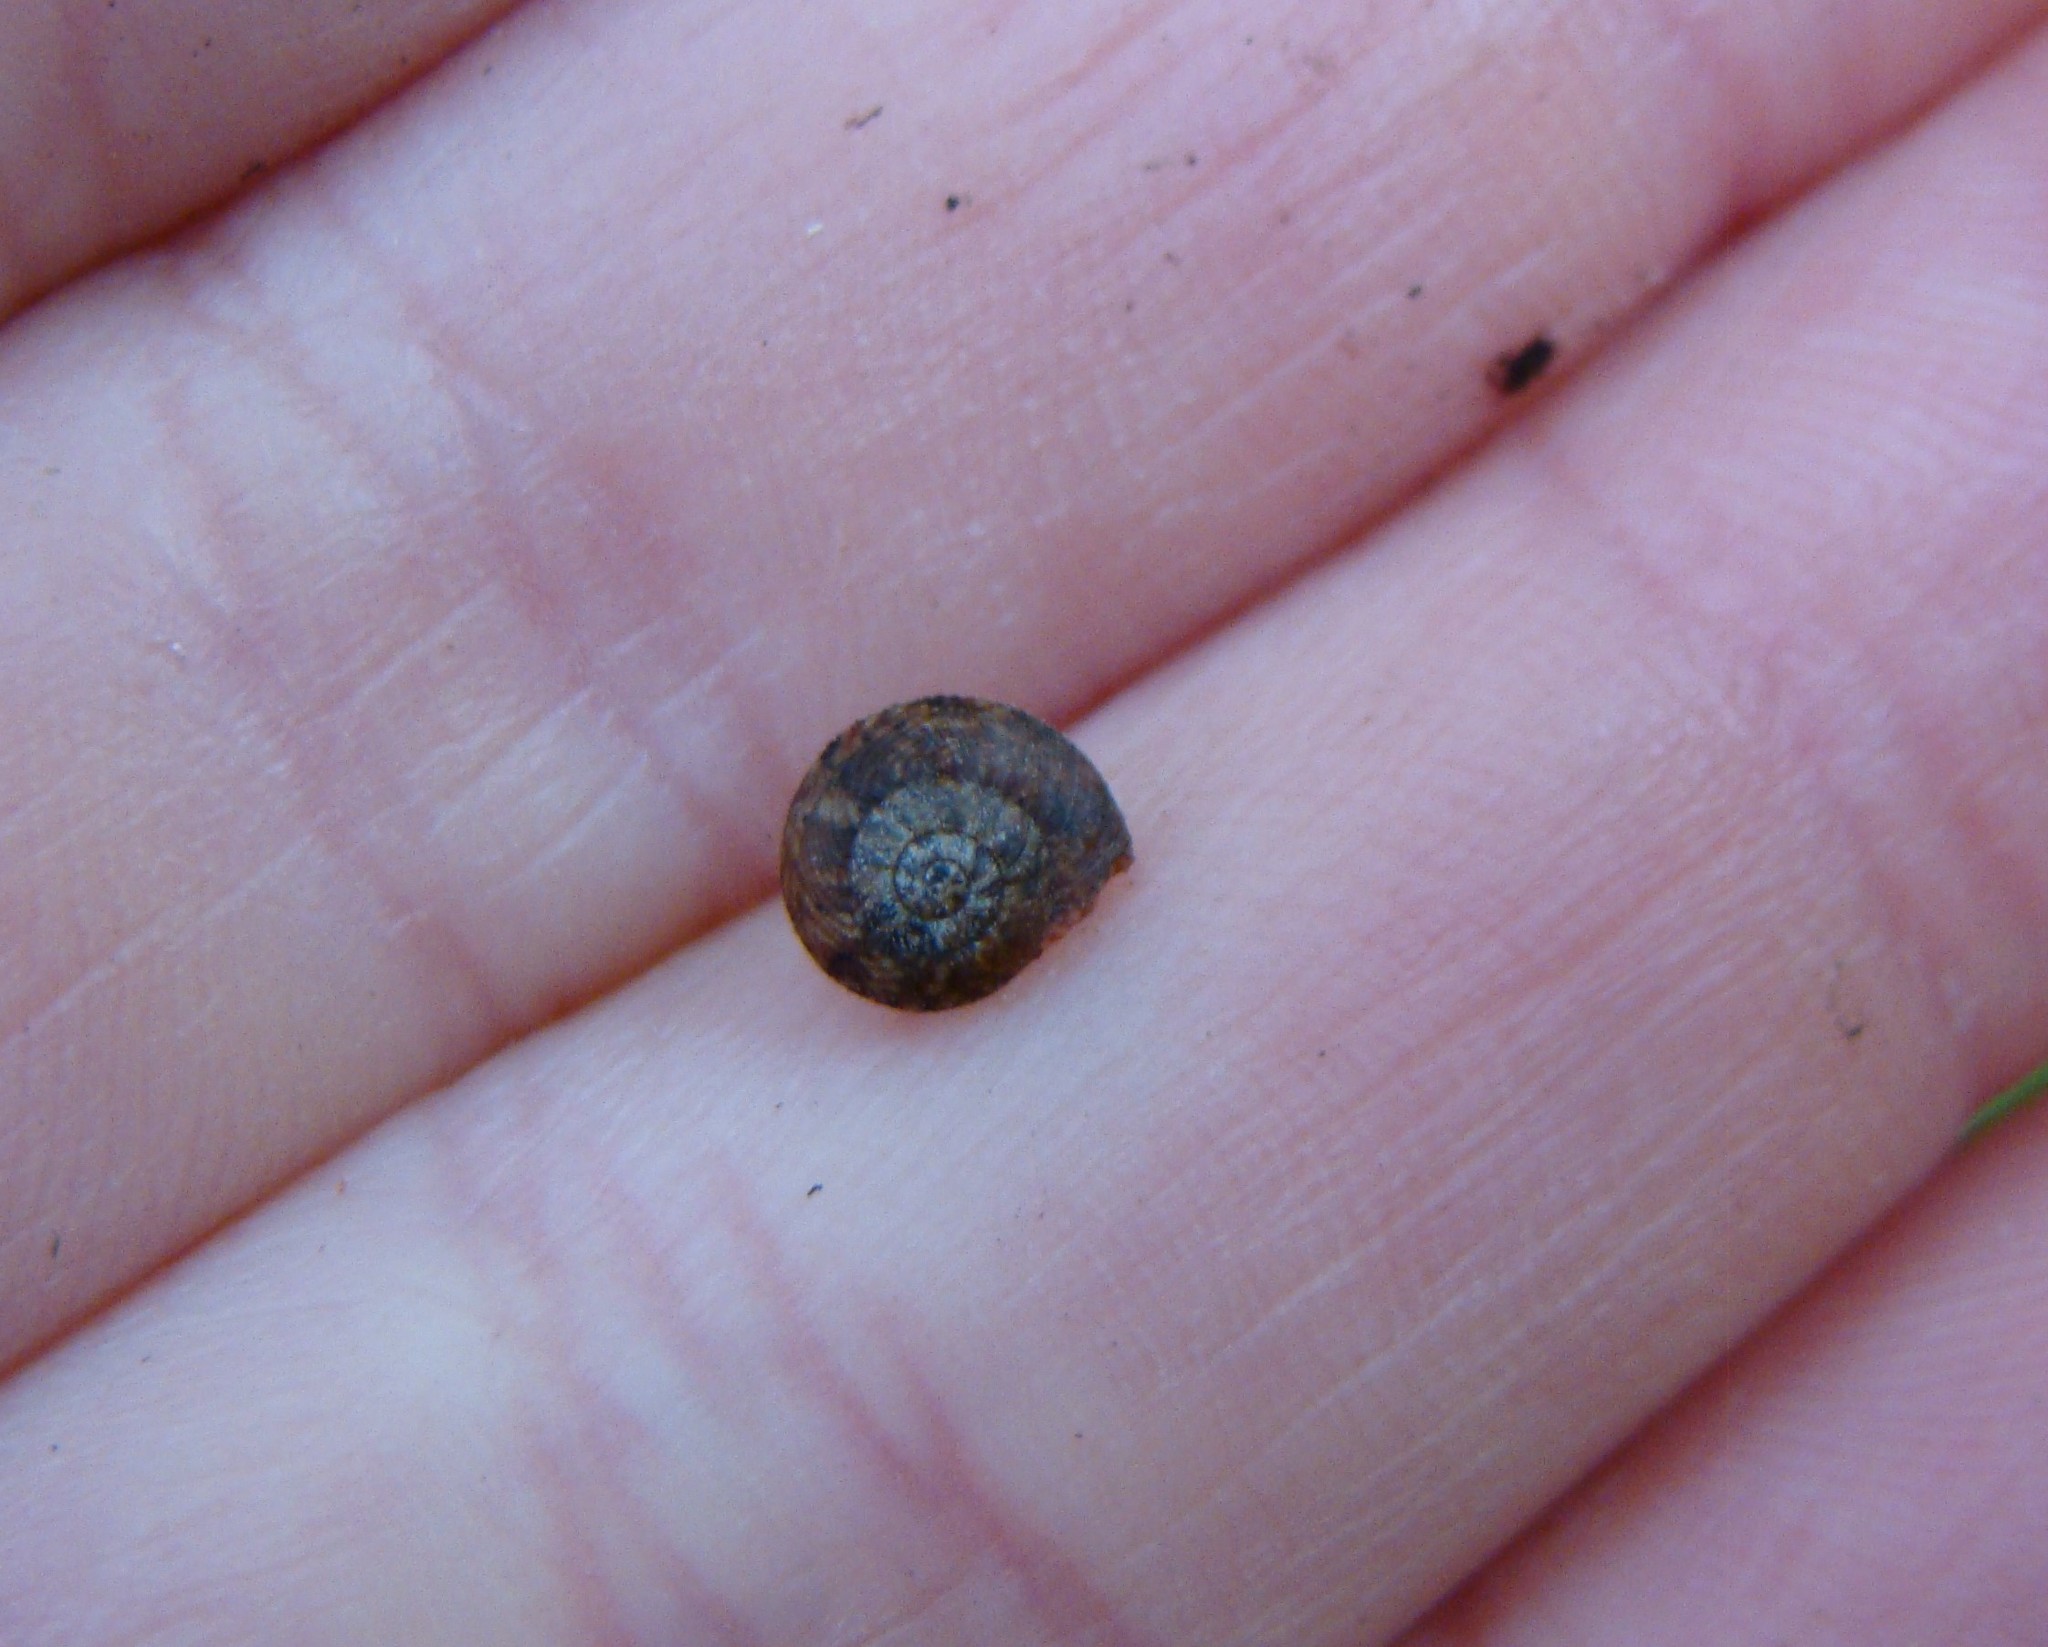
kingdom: Animalia
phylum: Mollusca
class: Gastropoda
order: Stylommatophora
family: Charopidae
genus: Thalassohelix
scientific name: Thalassohelix zelandiae
